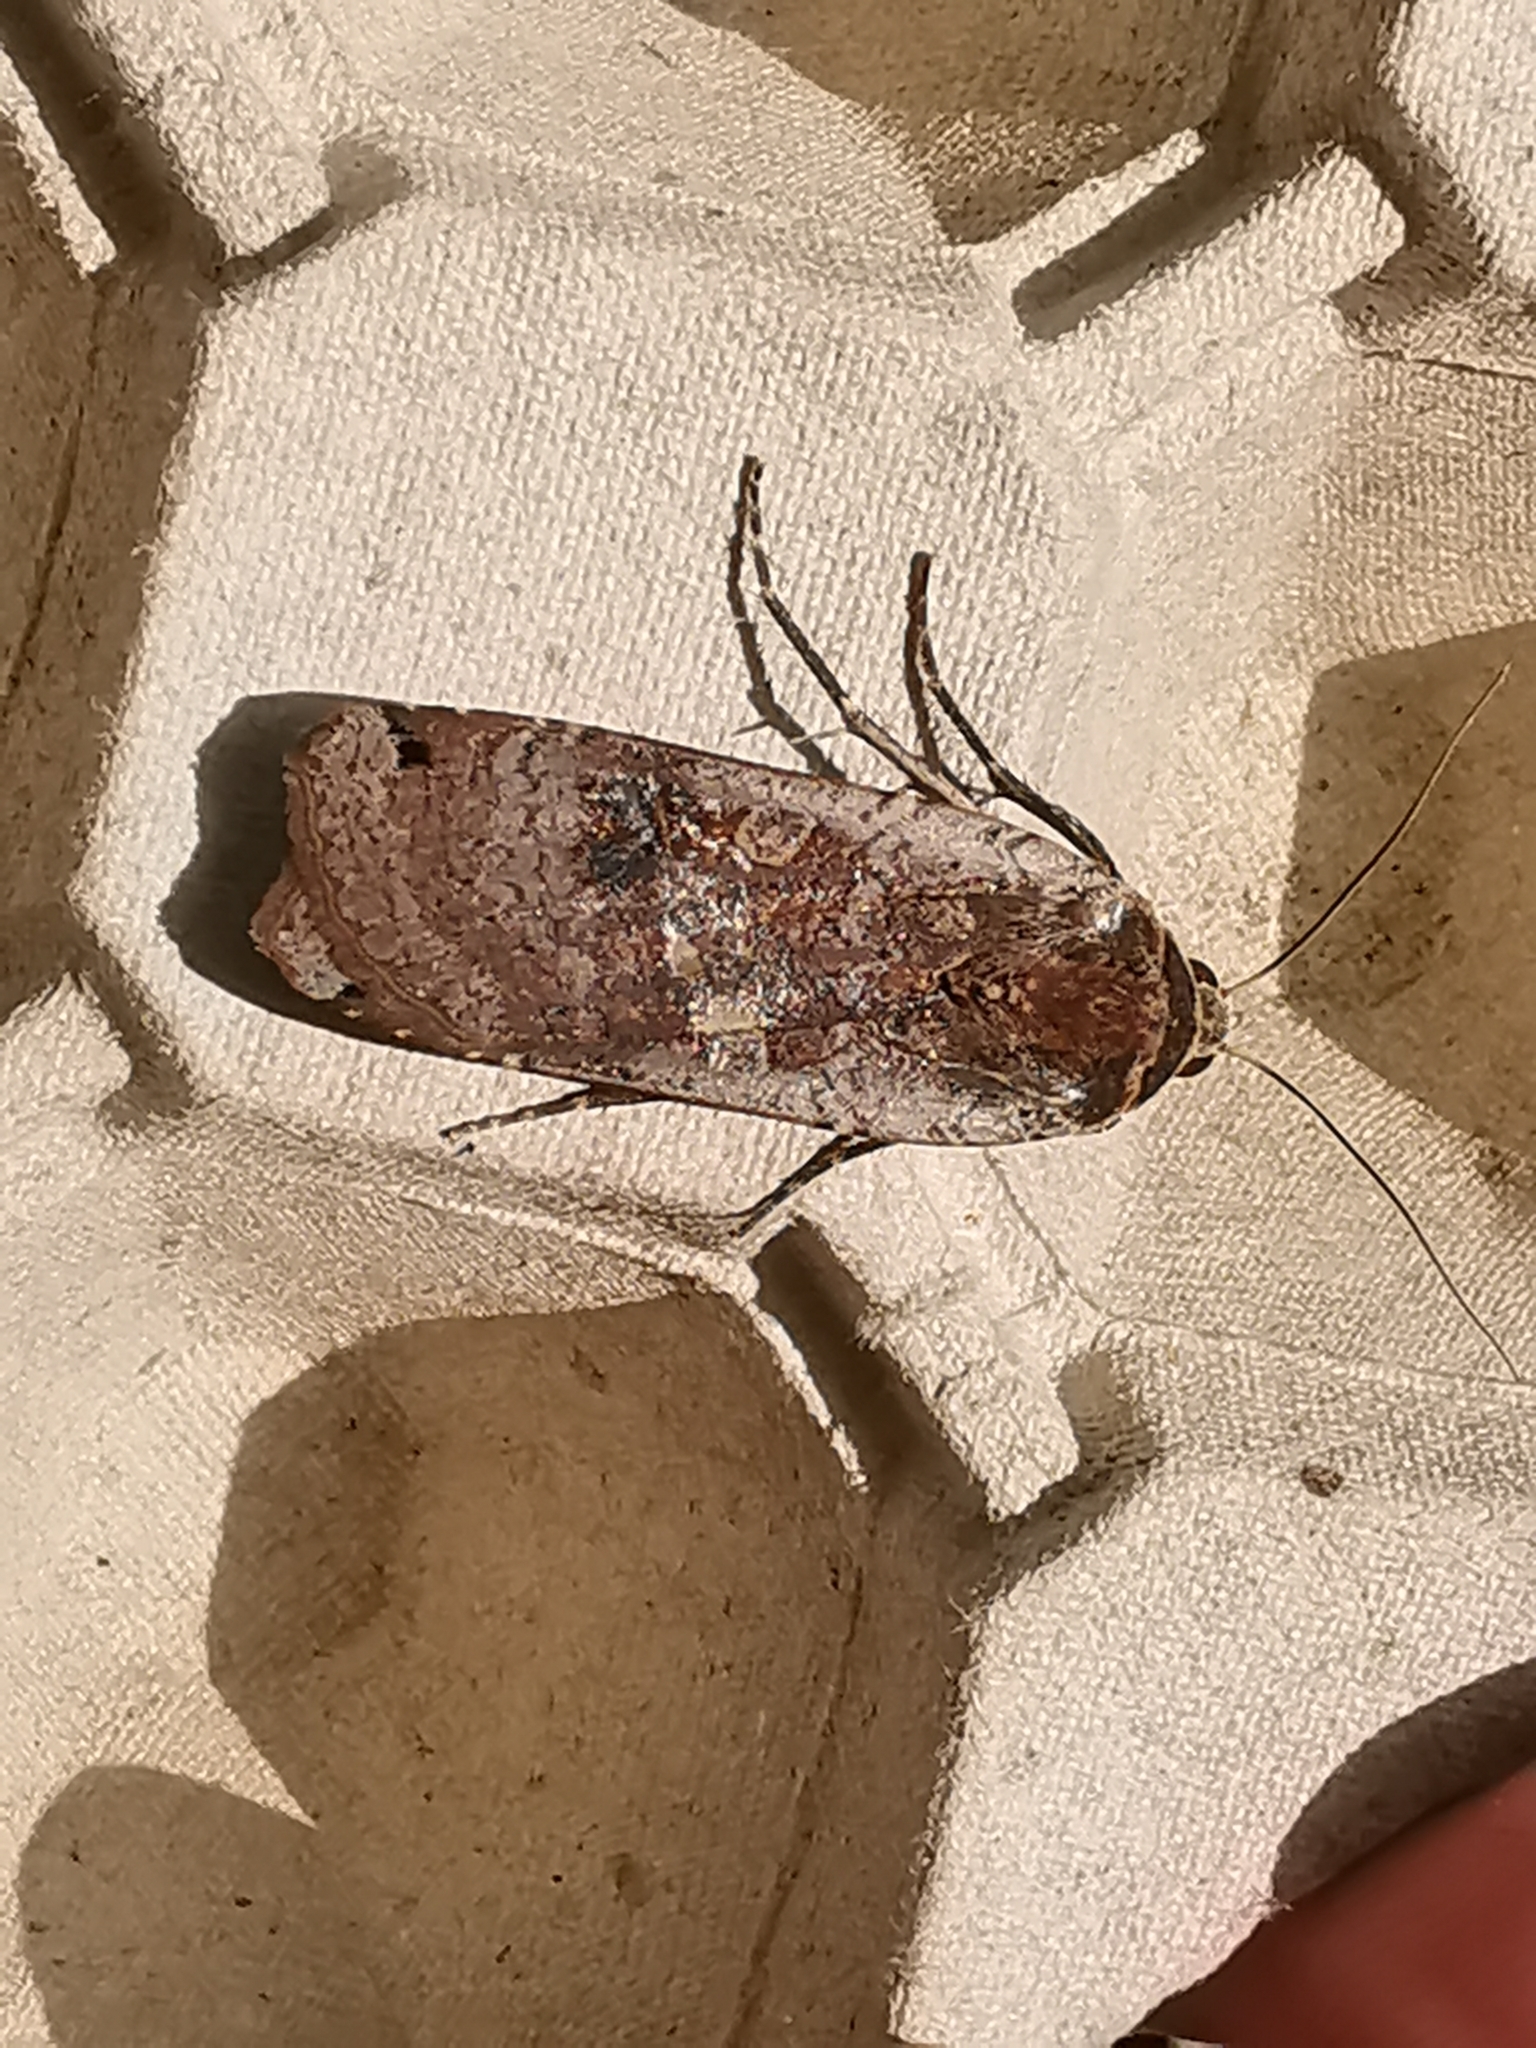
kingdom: Animalia
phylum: Arthropoda
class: Insecta
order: Lepidoptera
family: Noctuidae
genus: Noctua
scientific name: Noctua pronuba
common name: Large yellow underwing
